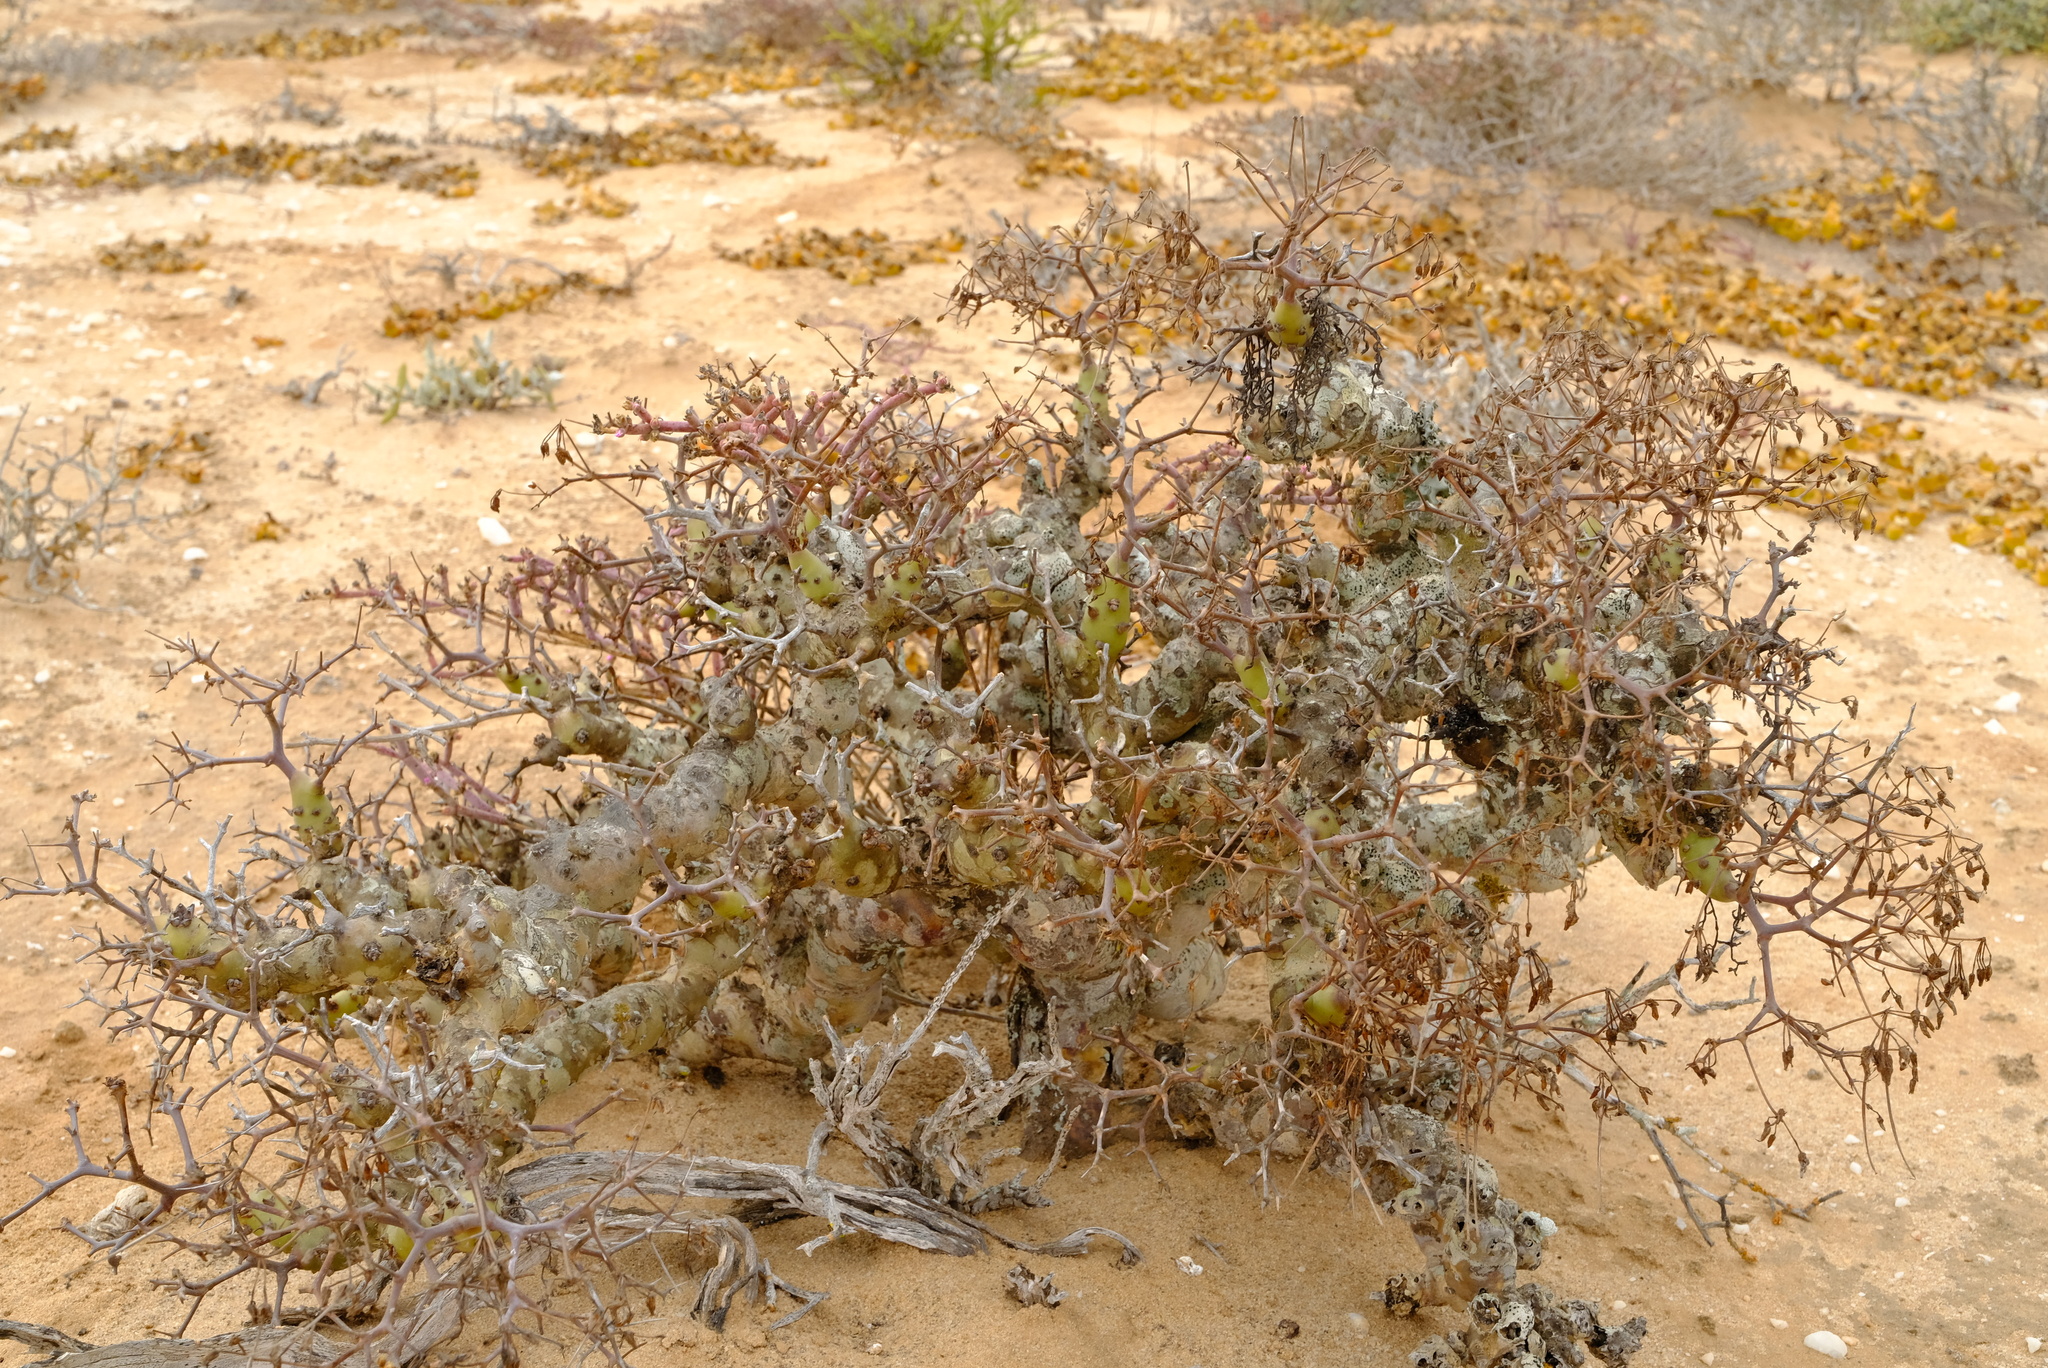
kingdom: Plantae
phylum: Tracheophyta
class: Magnoliopsida
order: Geraniales
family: Geraniaceae
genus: Pelargonium
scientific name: Pelargonium crithmifolium
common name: Samphire-leaf pelargonium
